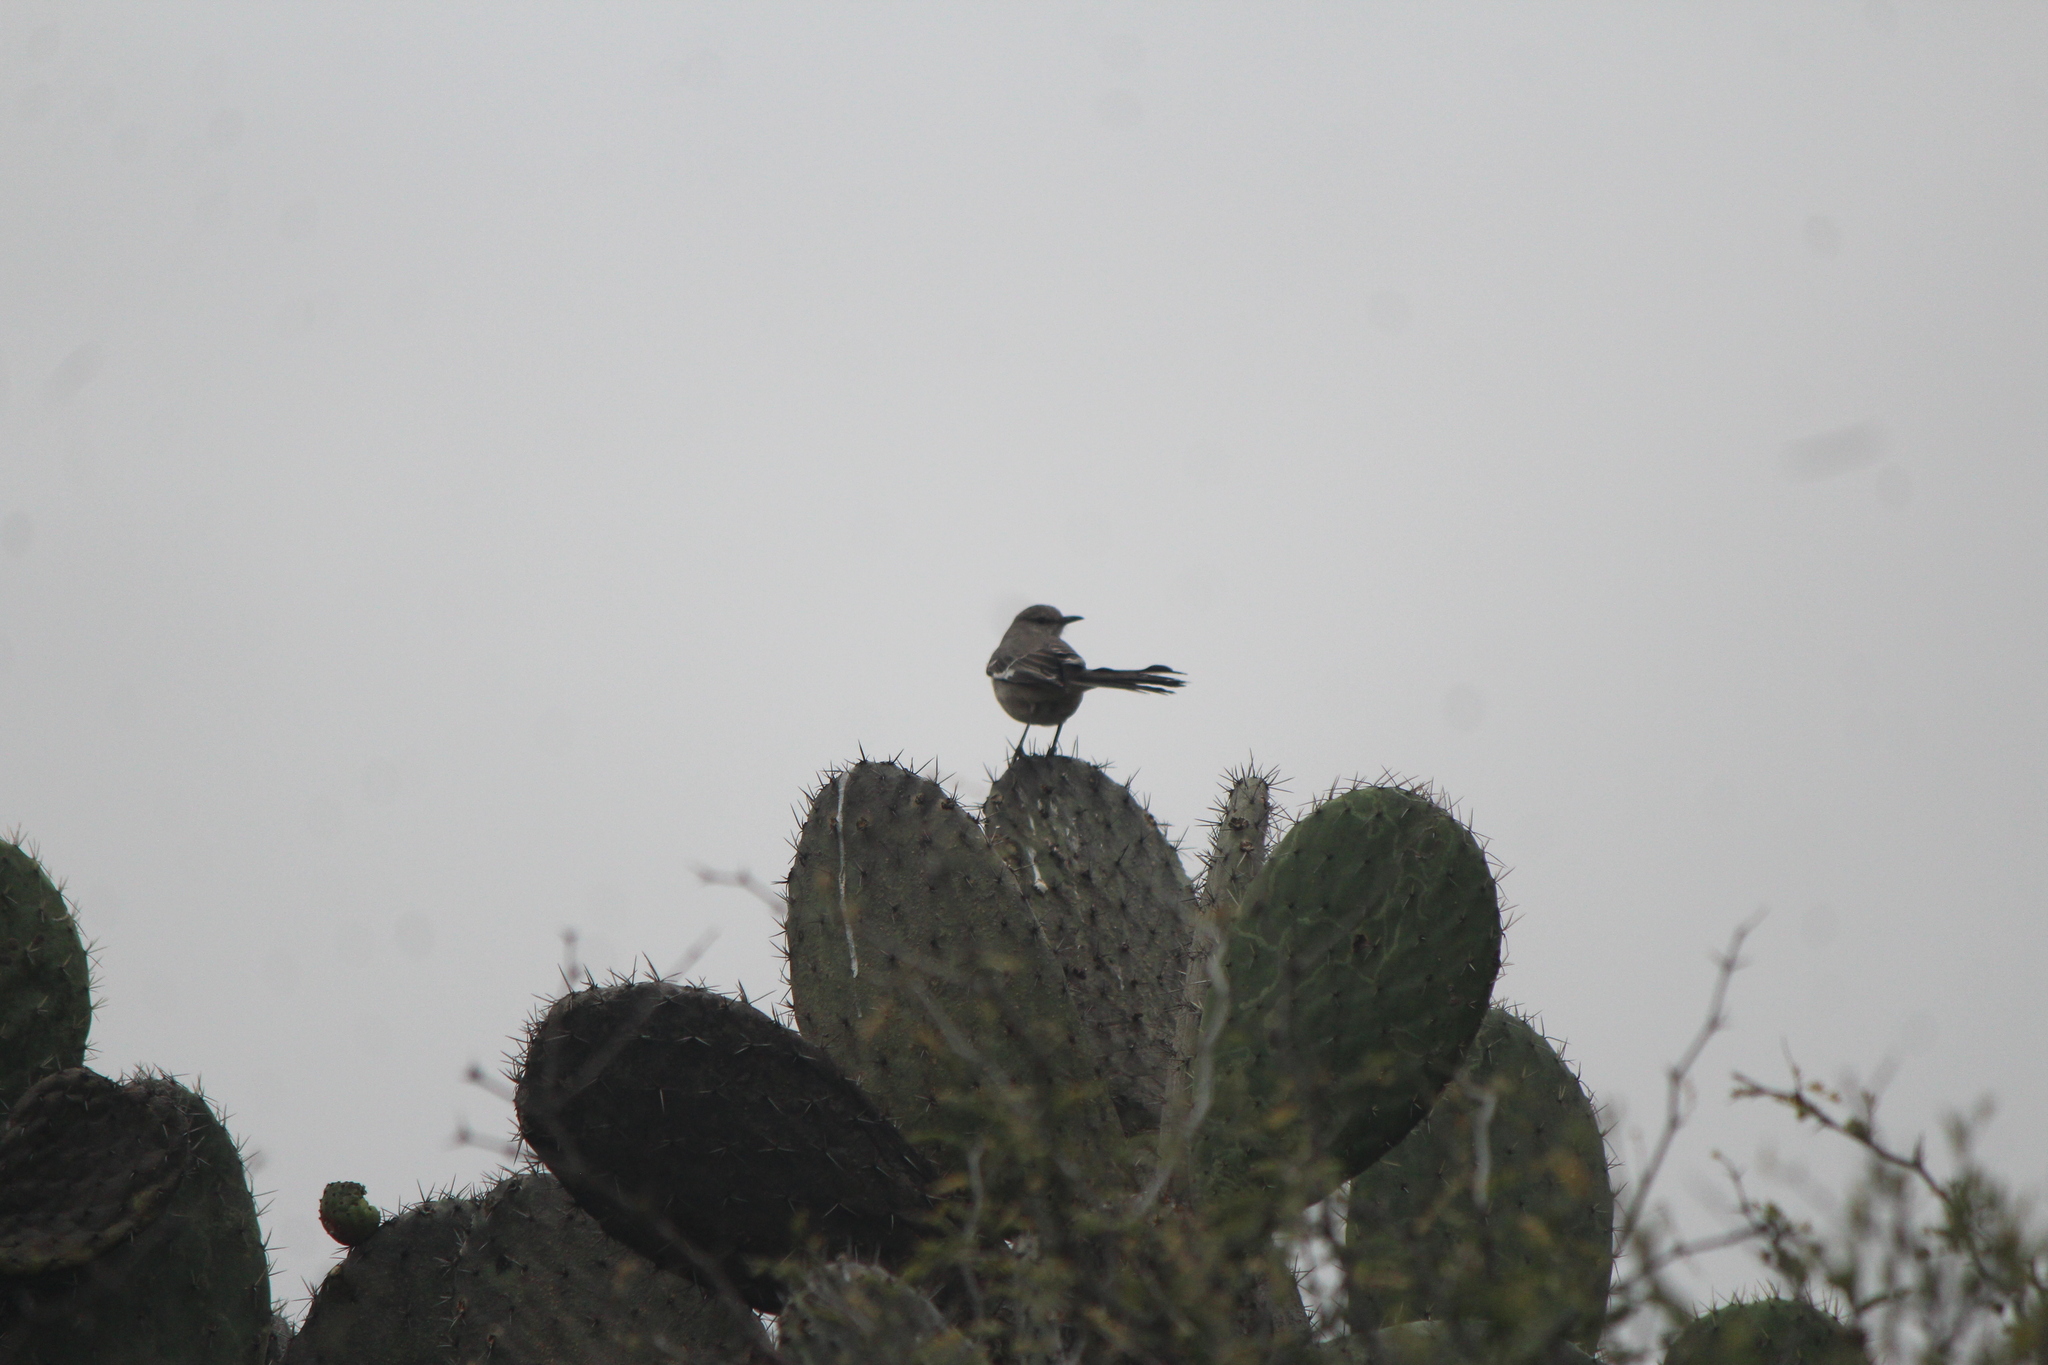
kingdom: Animalia
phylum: Chordata
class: Aves
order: Passeriformes
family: Mimidae
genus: Mimus
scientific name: Mimus polyglottos
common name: Northern mockingbird
